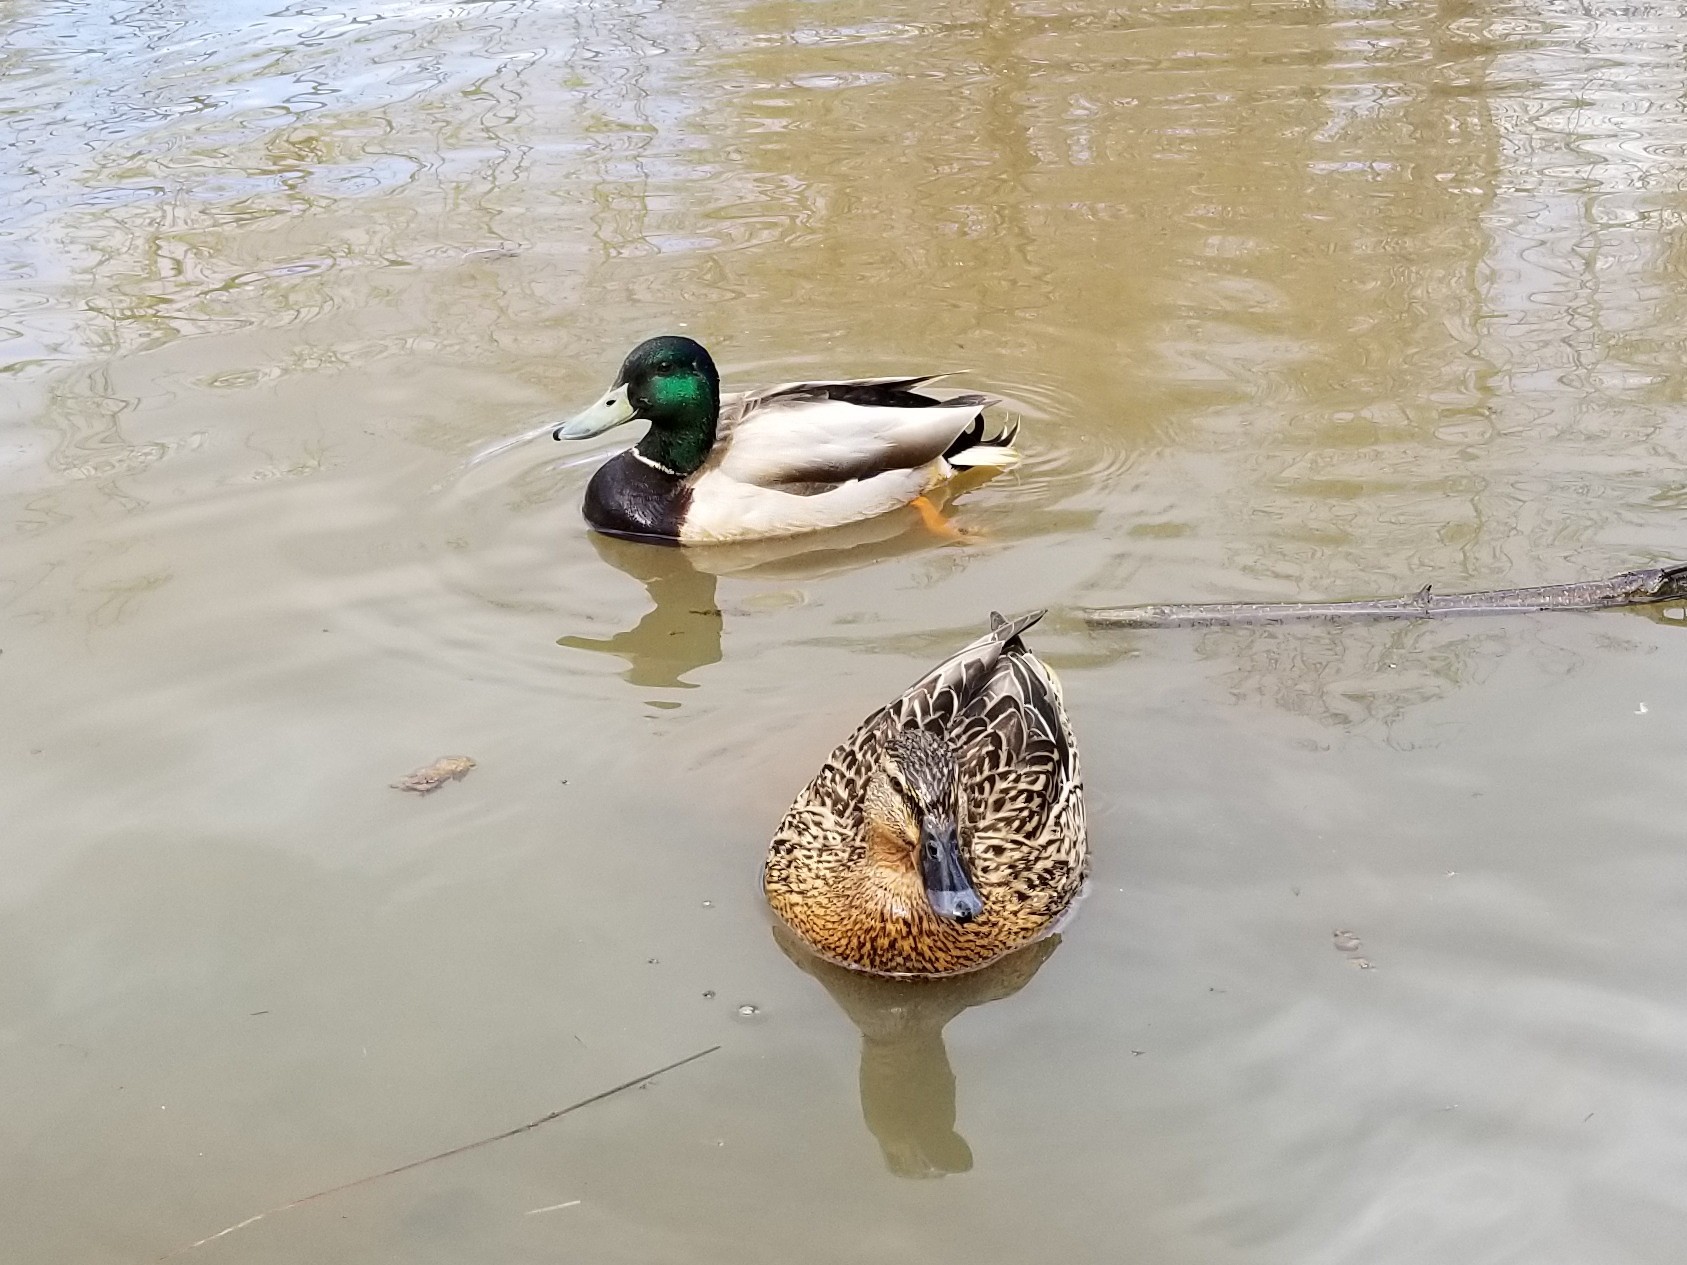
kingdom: Animalia
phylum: Chordata
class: Aves
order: Anseriformes
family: Anatidae
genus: Anas
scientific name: Anas platyrhynchos
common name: Mallard
